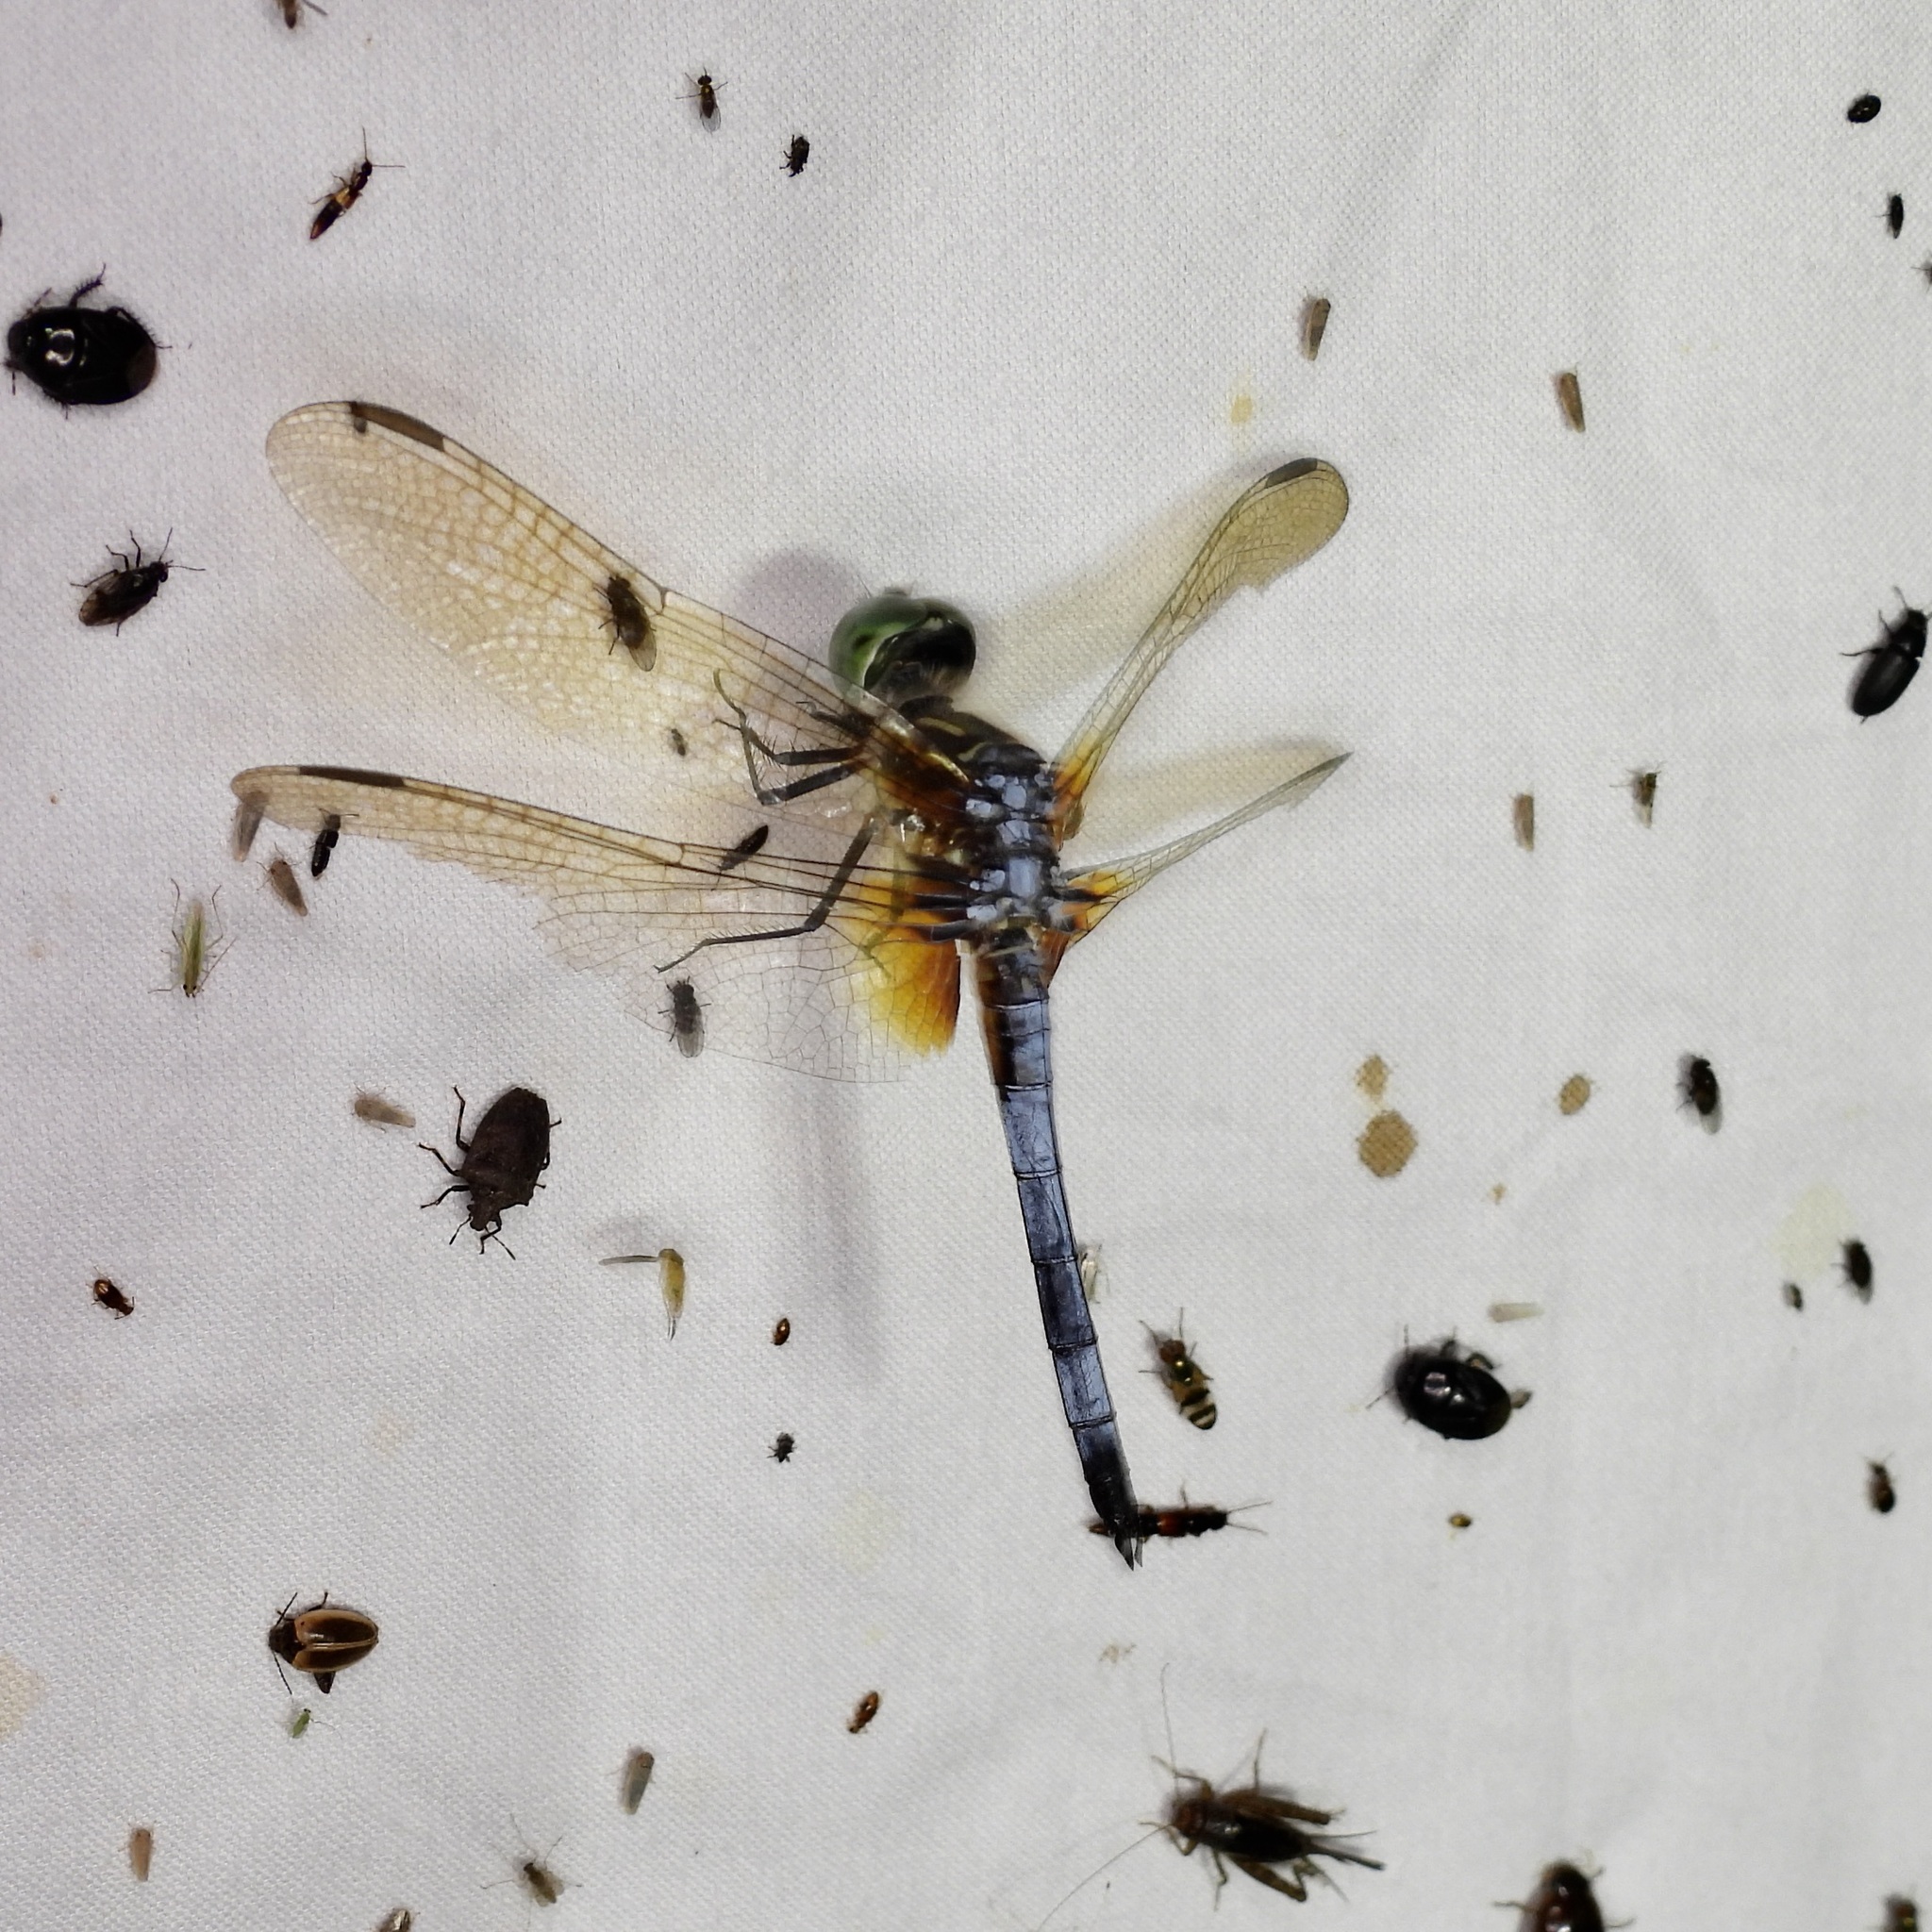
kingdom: Animalia
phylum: Arthropoda
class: Insecta
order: Odonata
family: Libellulidae
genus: Pachydiplax
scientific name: Pachydiplax longipennis
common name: Blue dasher
